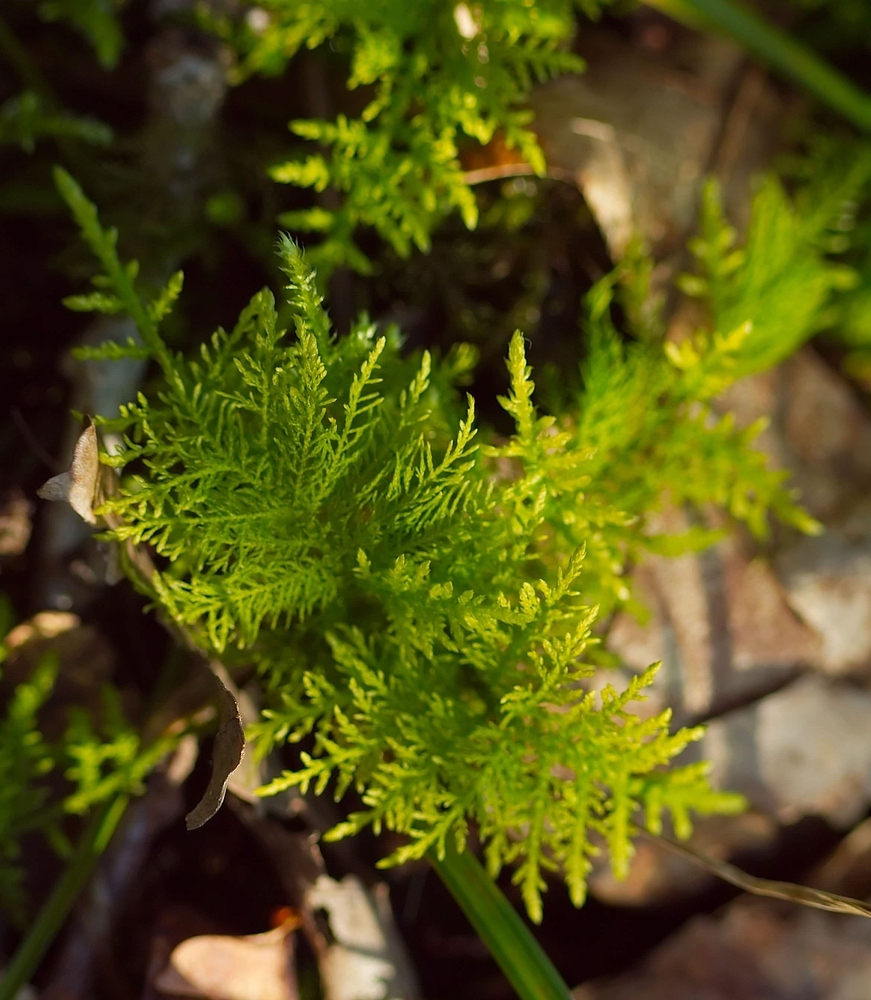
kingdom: Plantae
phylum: Bryophyta
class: Bryopsida
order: Hypnales
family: Thuidiaceae
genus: Thuidium
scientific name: Thuidium tamariscinum
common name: Common tamarisk-moss
